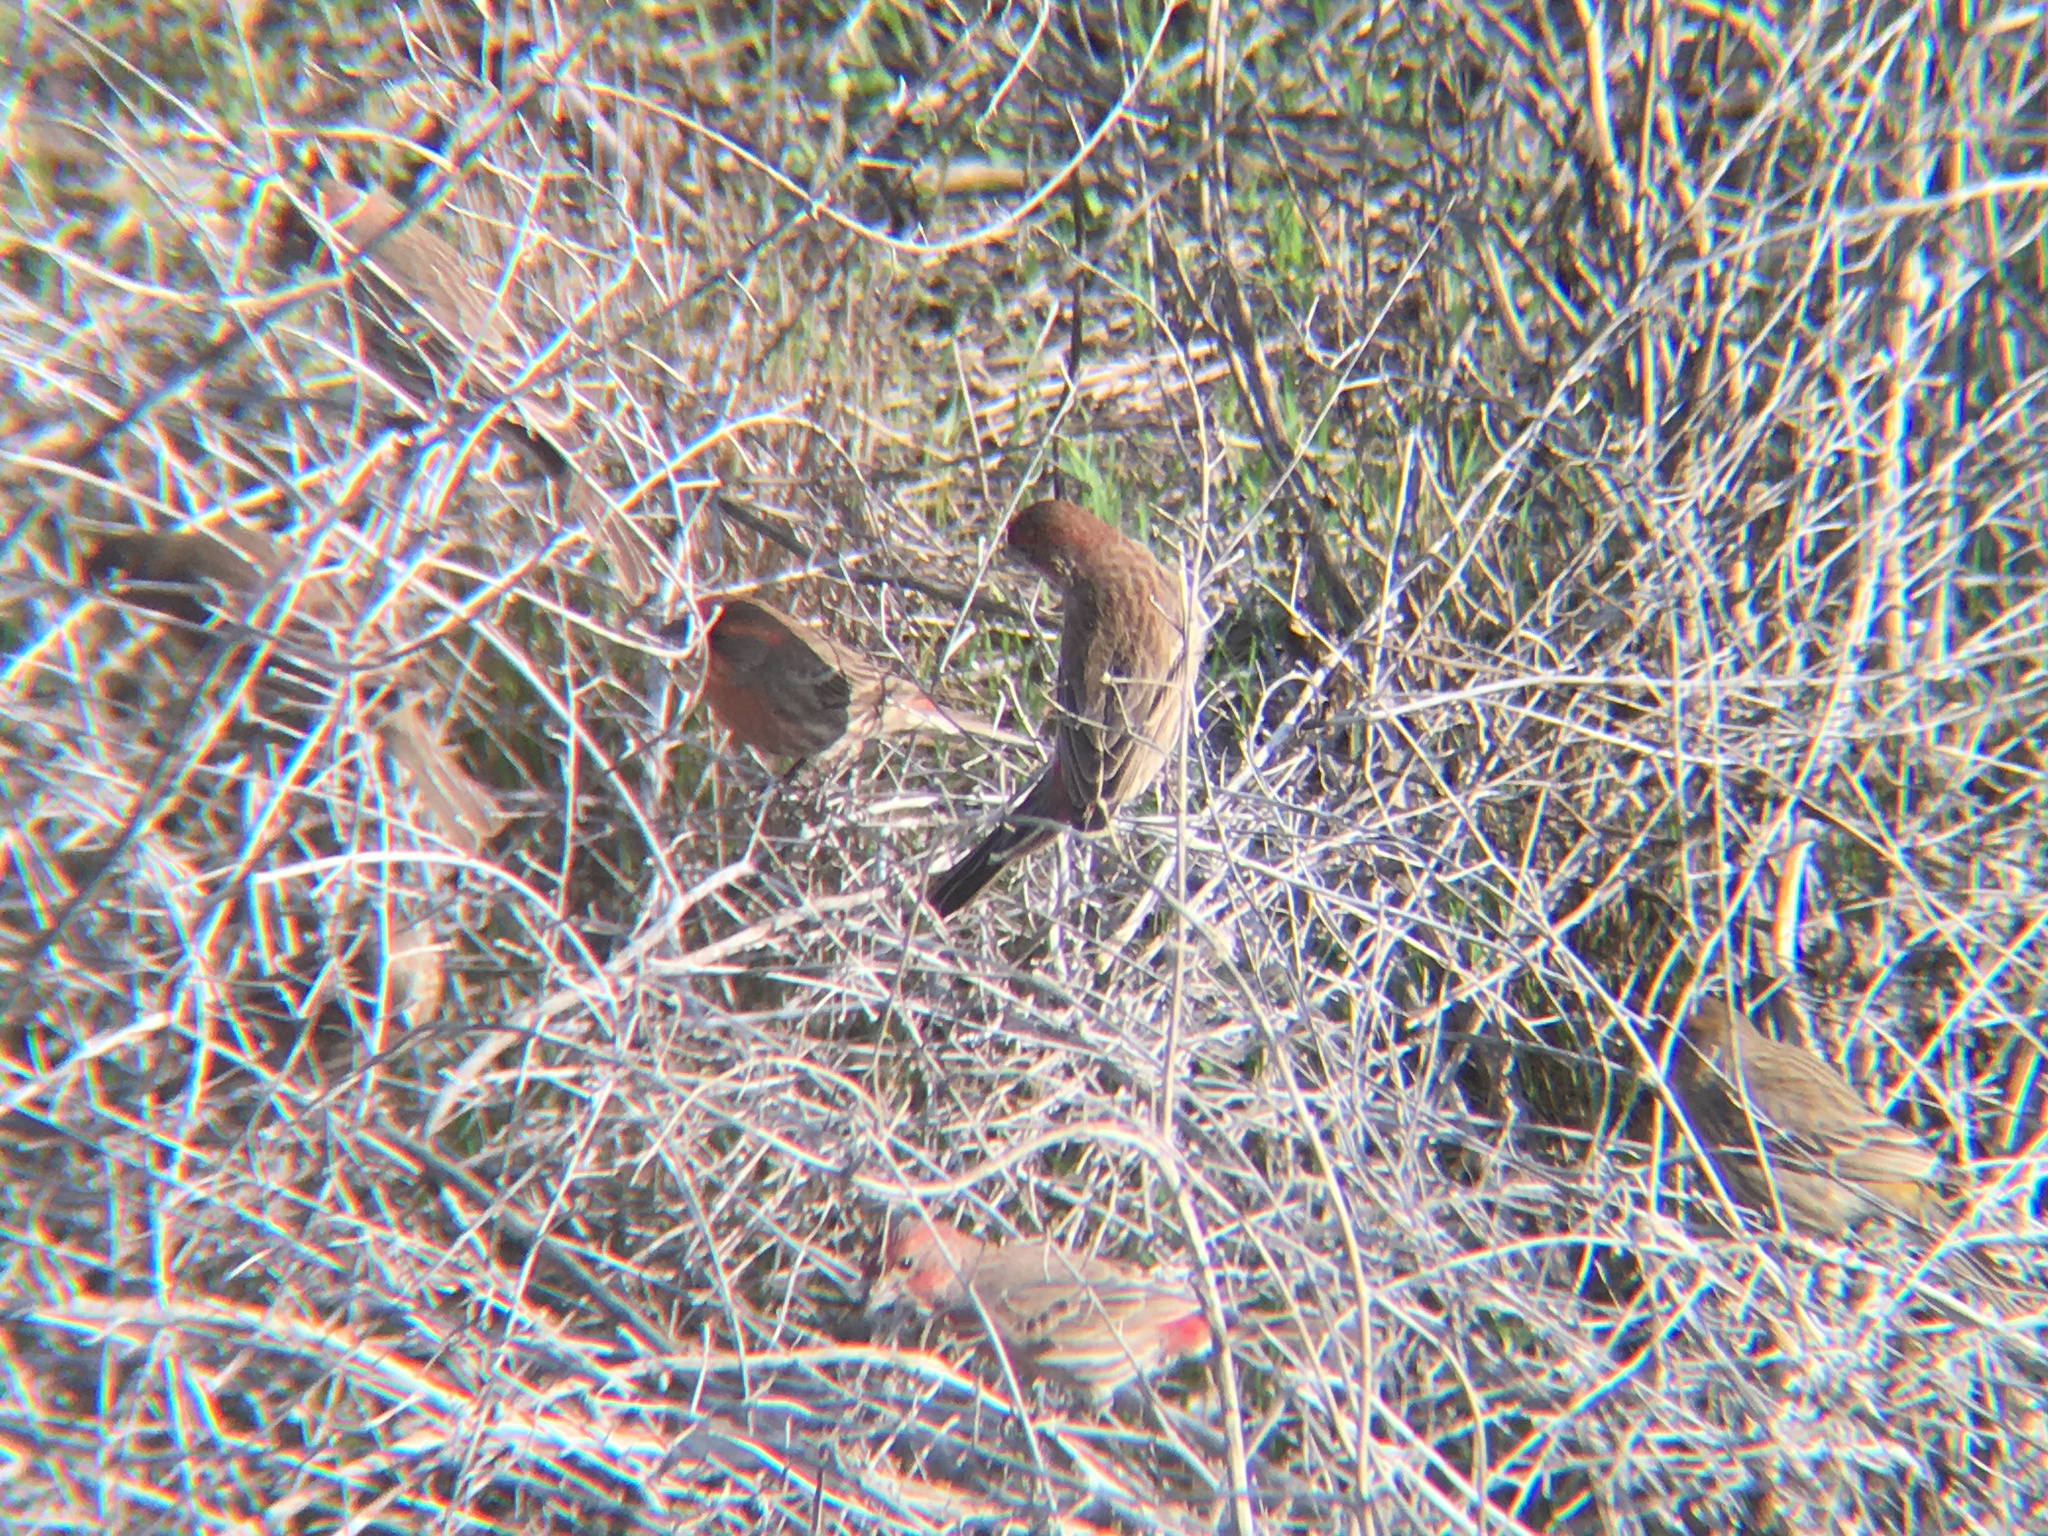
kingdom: Animalia
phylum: Chordata
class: Aves
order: Passeriformes
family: Fringillidae
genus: Haemorhous
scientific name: Haemorhous mexicanus
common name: House finch
